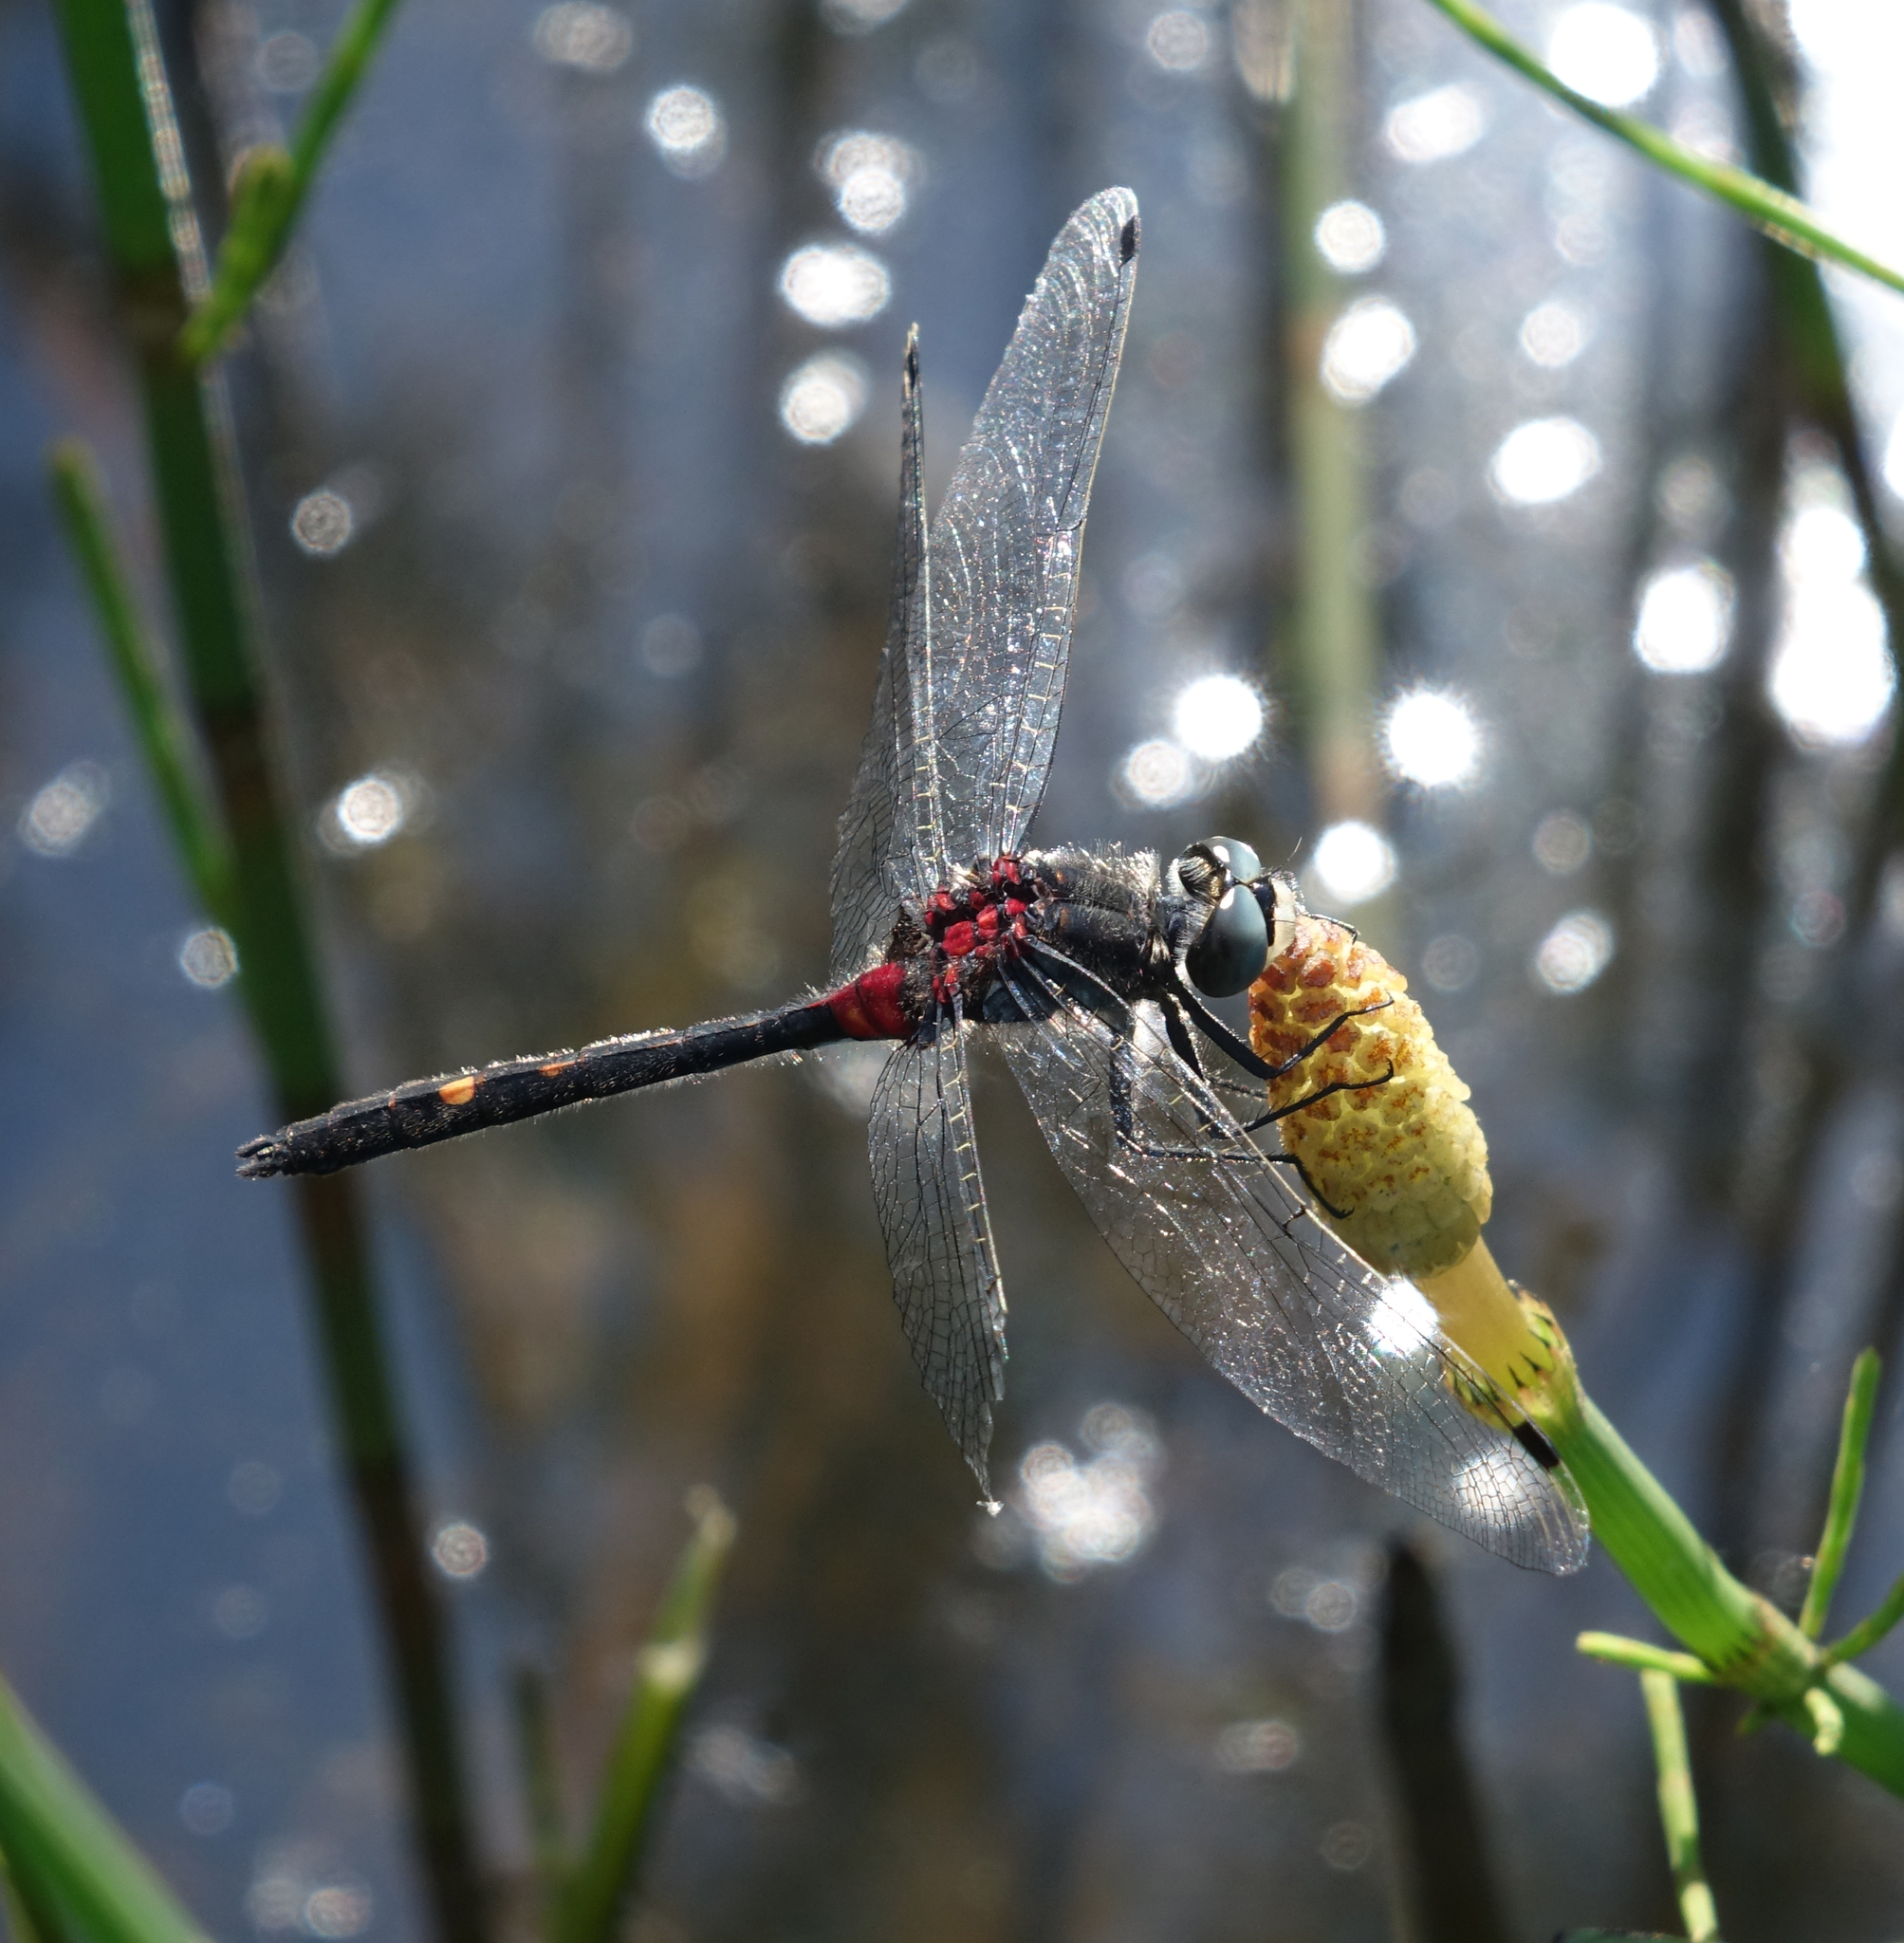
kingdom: Plantae
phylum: Tracheophyta
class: Polypodiopsida
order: Equisetales
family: Equisetaceae
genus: Equisetum
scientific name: Equisetum fluviatile
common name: Water horsetail
